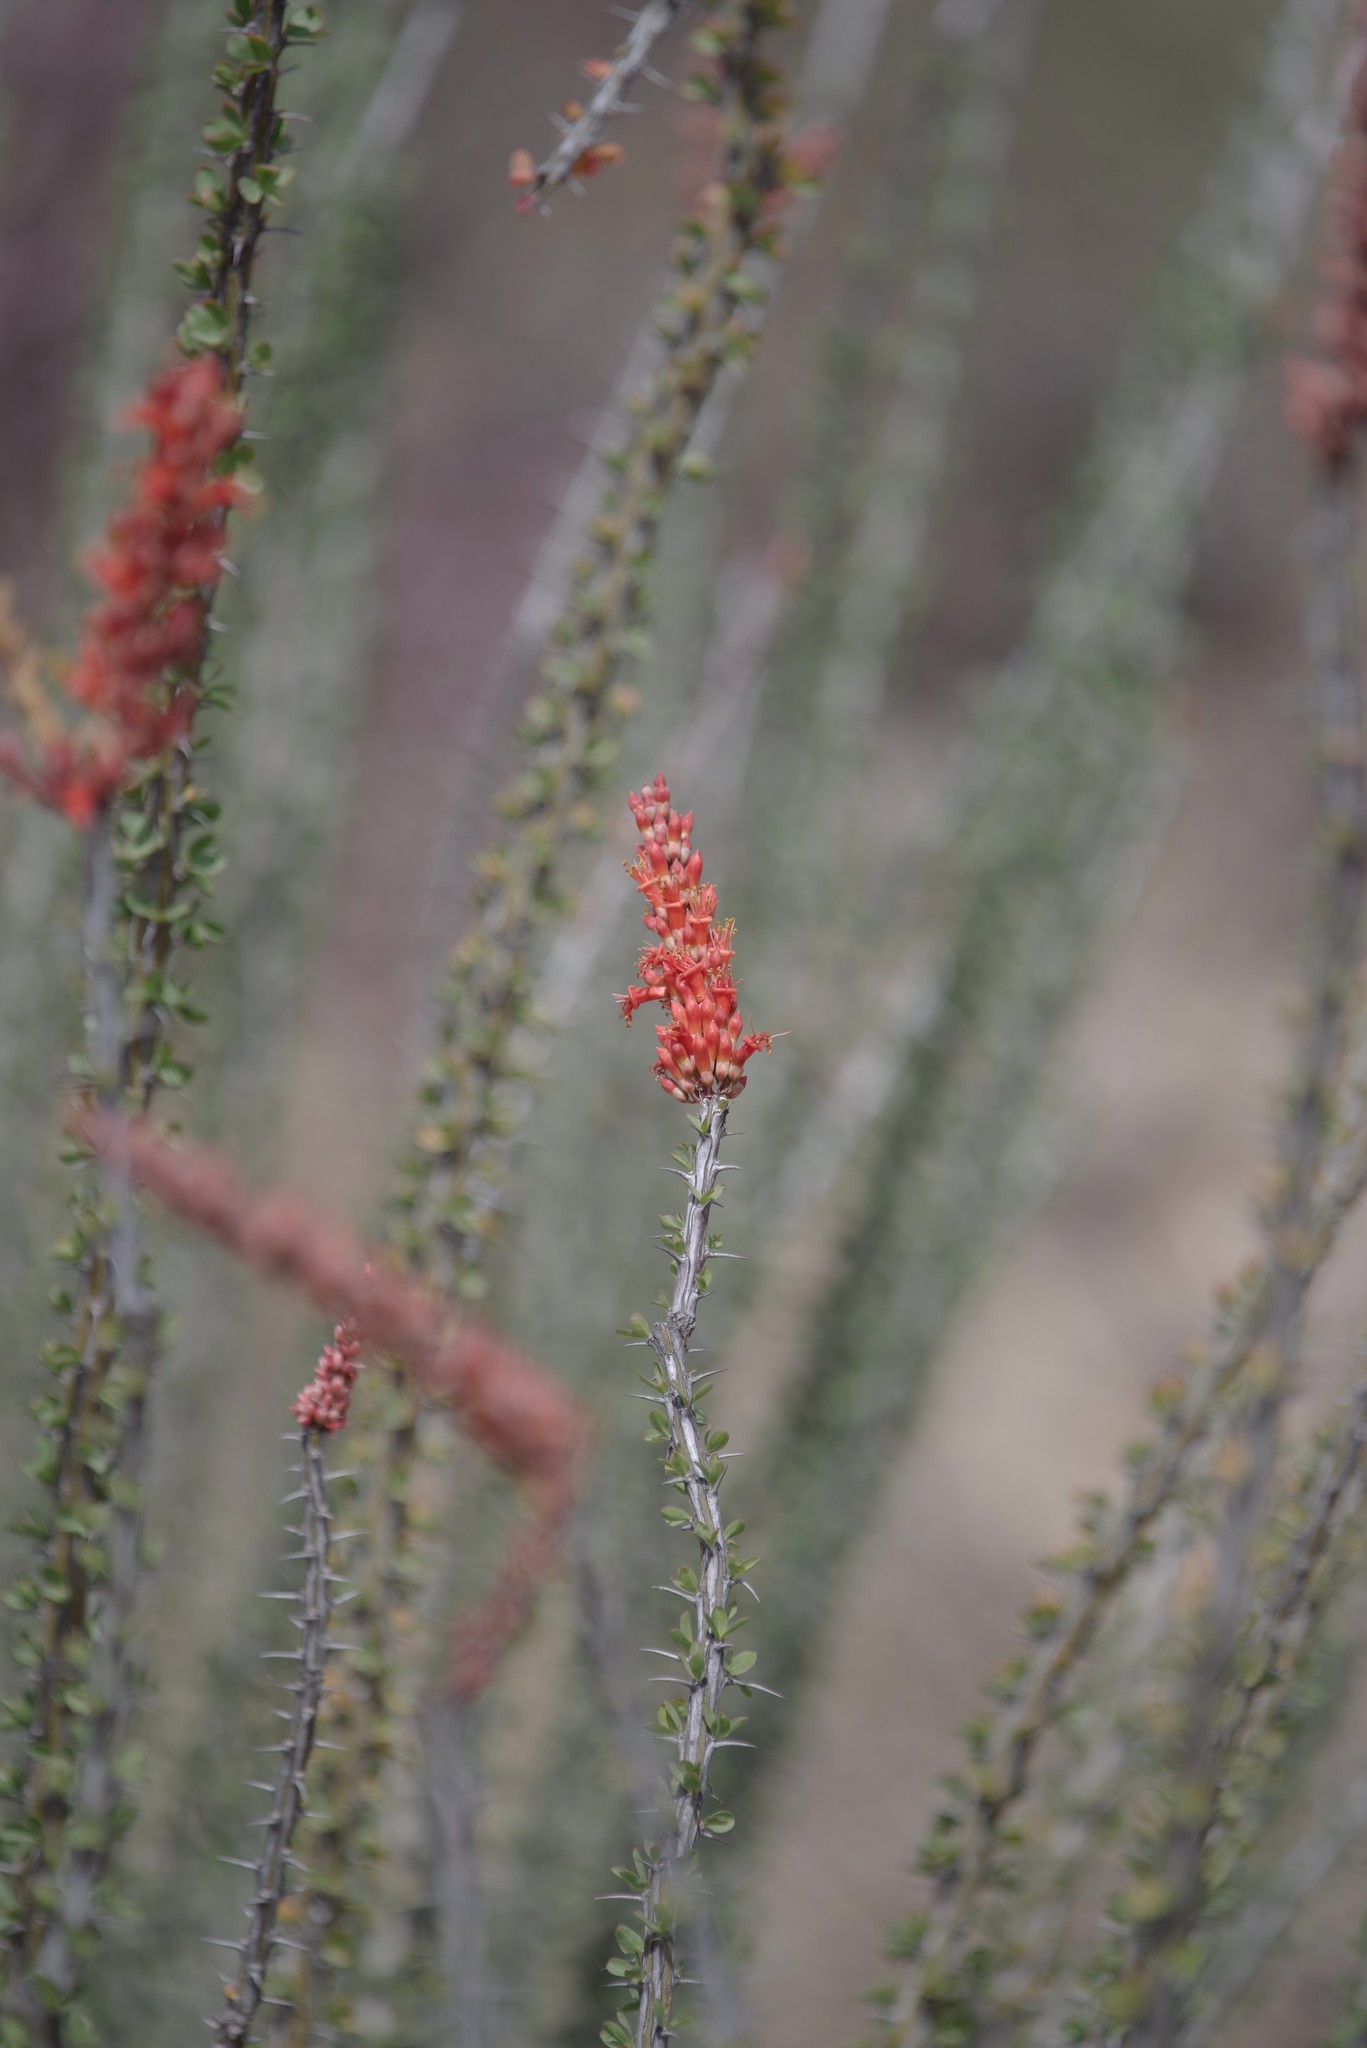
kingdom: Plantae
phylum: Tracheophyta
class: Magnoliopsida
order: Ericales
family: Fouquieriaceae
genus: Fouquieria
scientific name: Fouquieria splendens
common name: Vine-cactus
